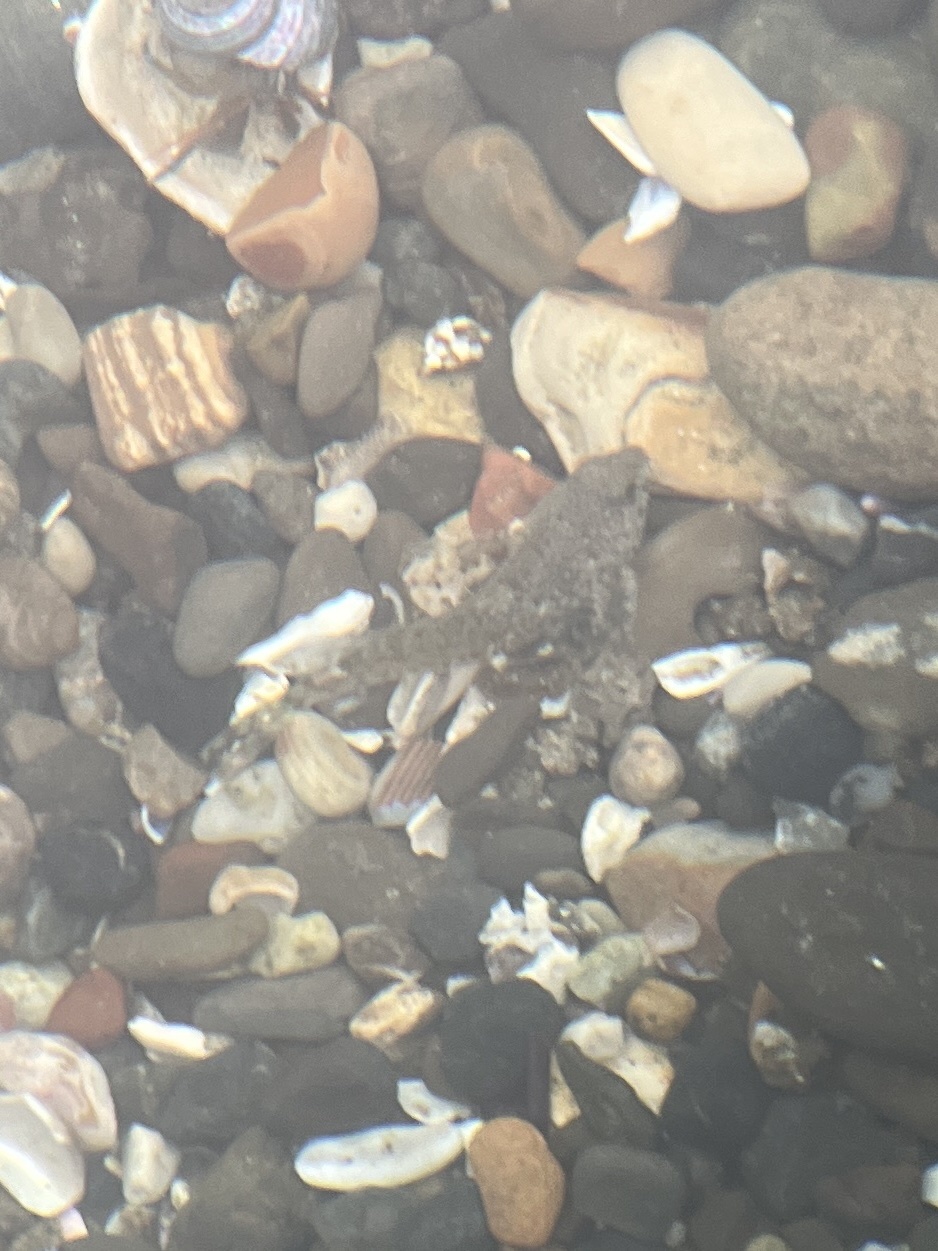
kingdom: Animalia
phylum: Chordata
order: Scorpaeniformes
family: Cottidae
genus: Clinocottus
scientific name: Clinocottus analis
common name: Woolly sculpin
